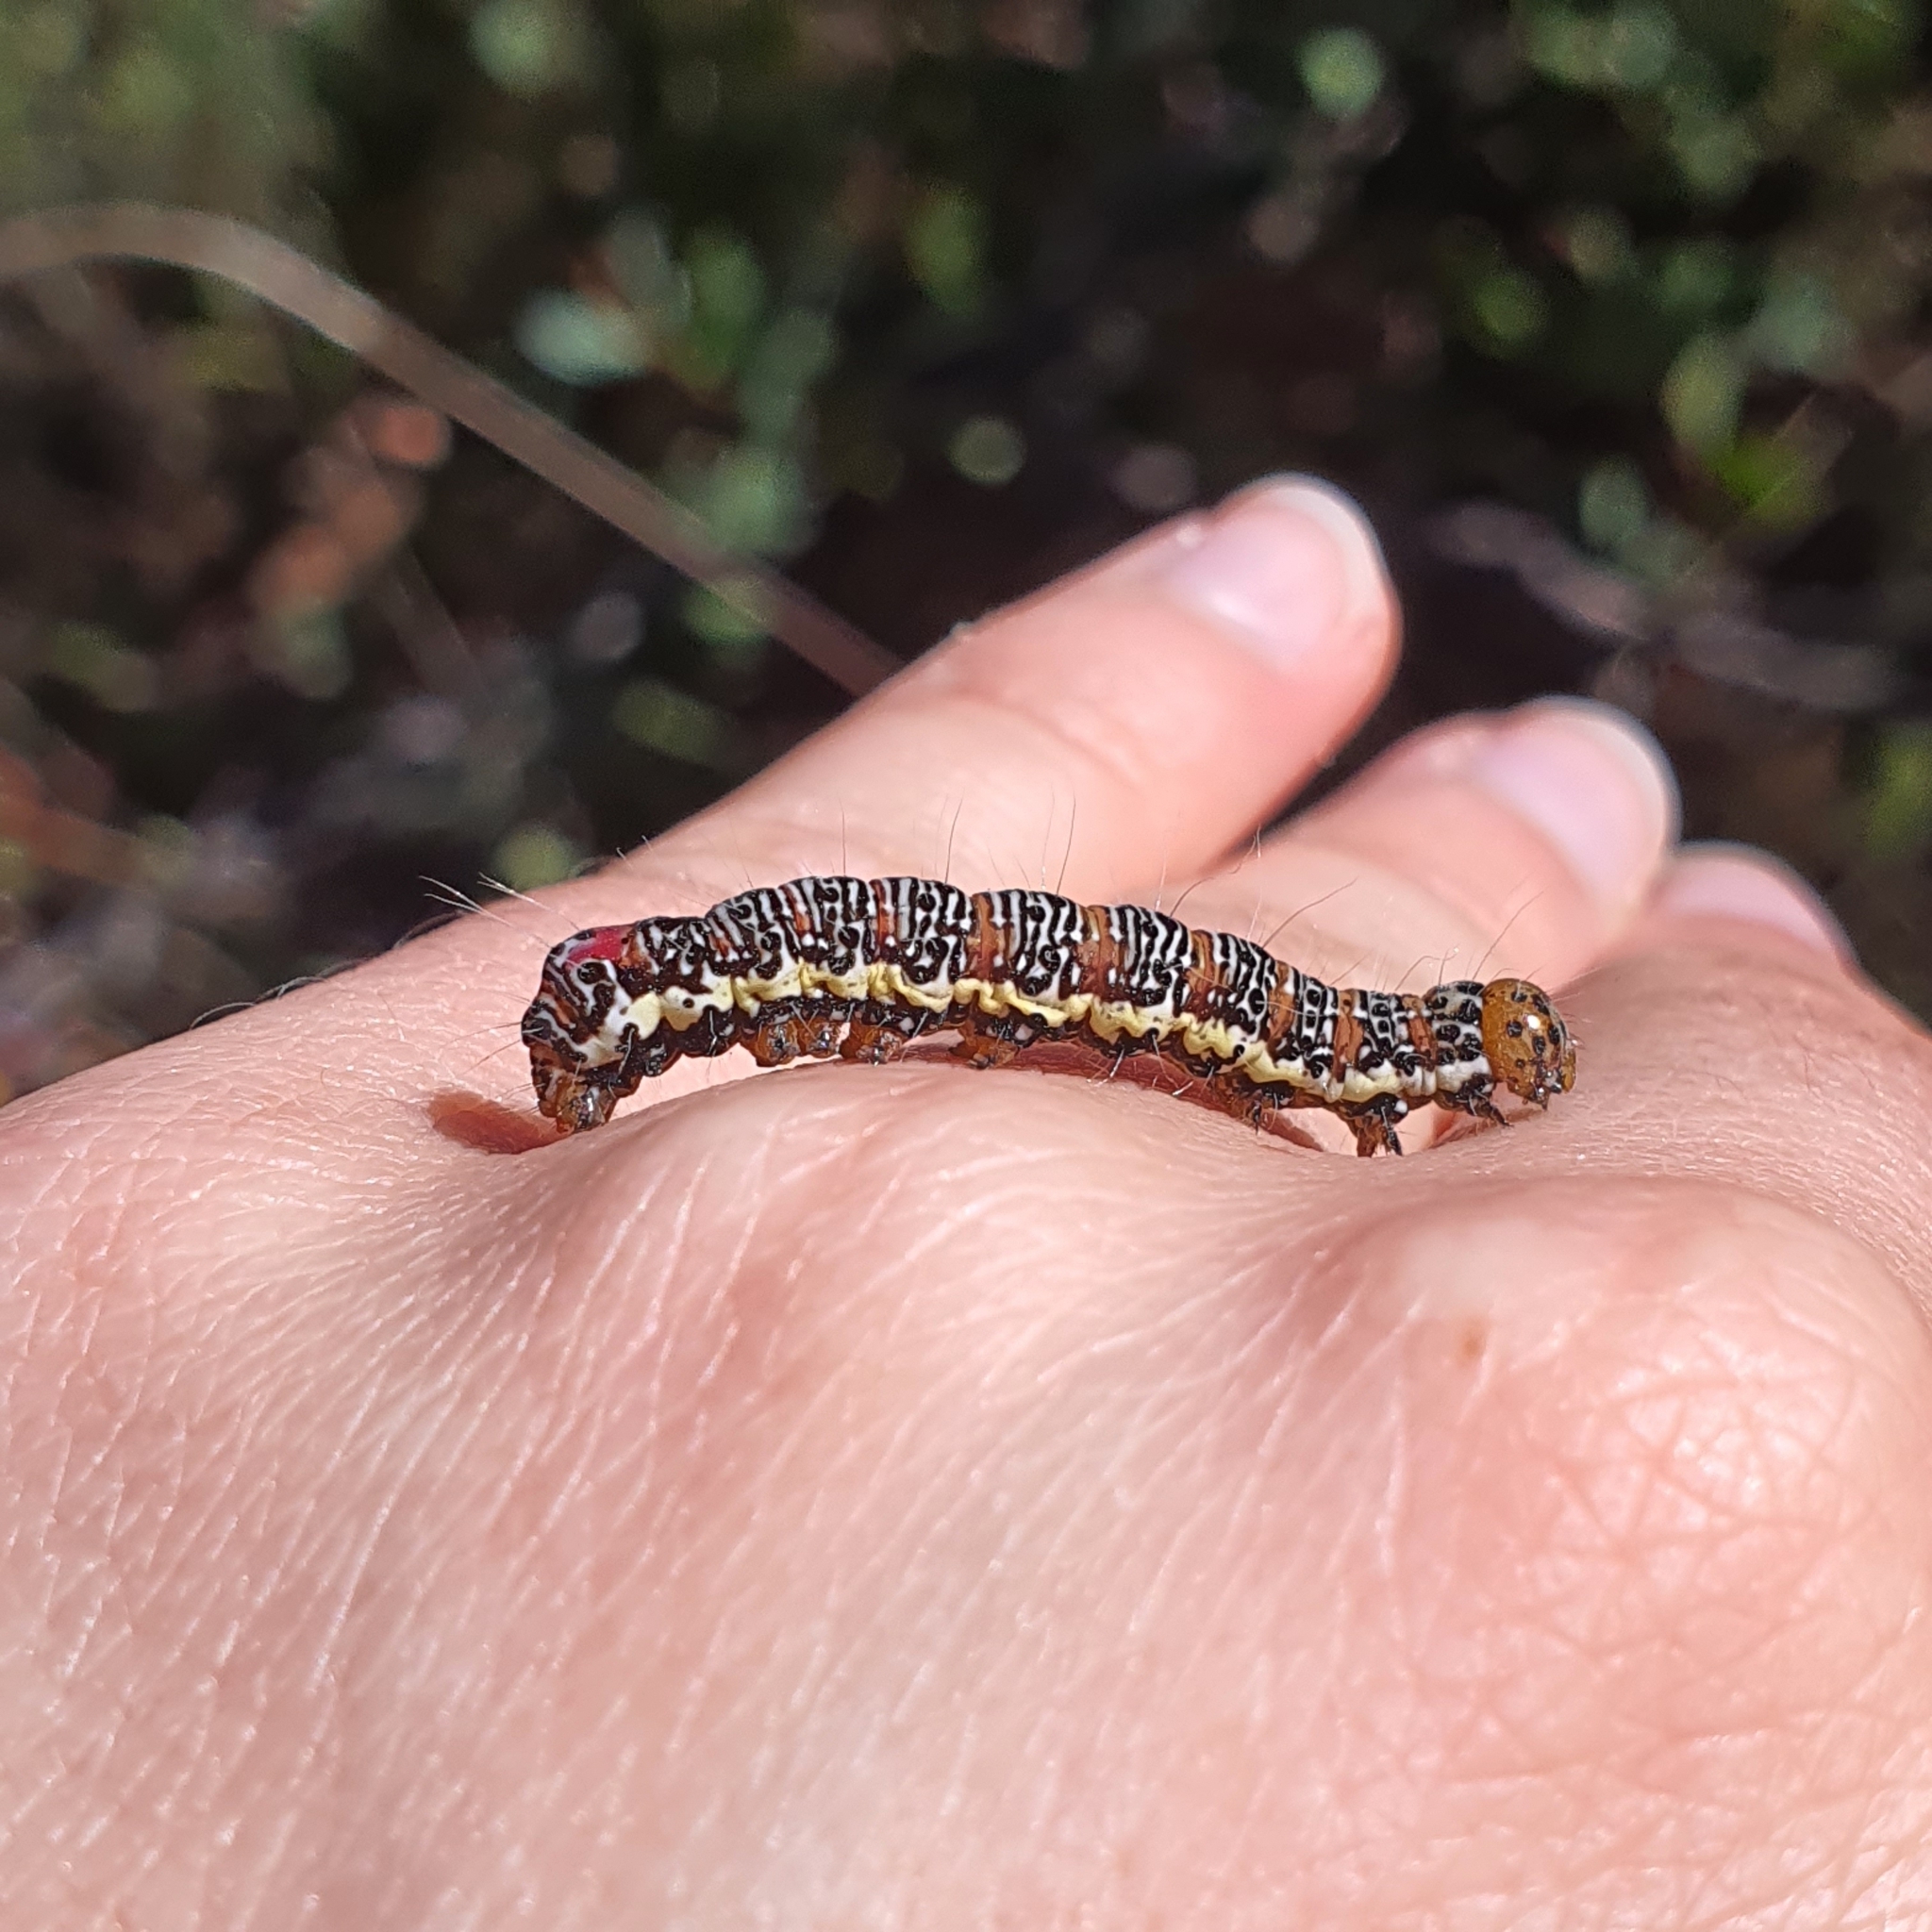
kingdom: Animalia
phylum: Arthropoda
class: Insecta
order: Lepidoptera
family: Noctuidae
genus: Hecatesia
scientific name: Hecatesia fenestrata
